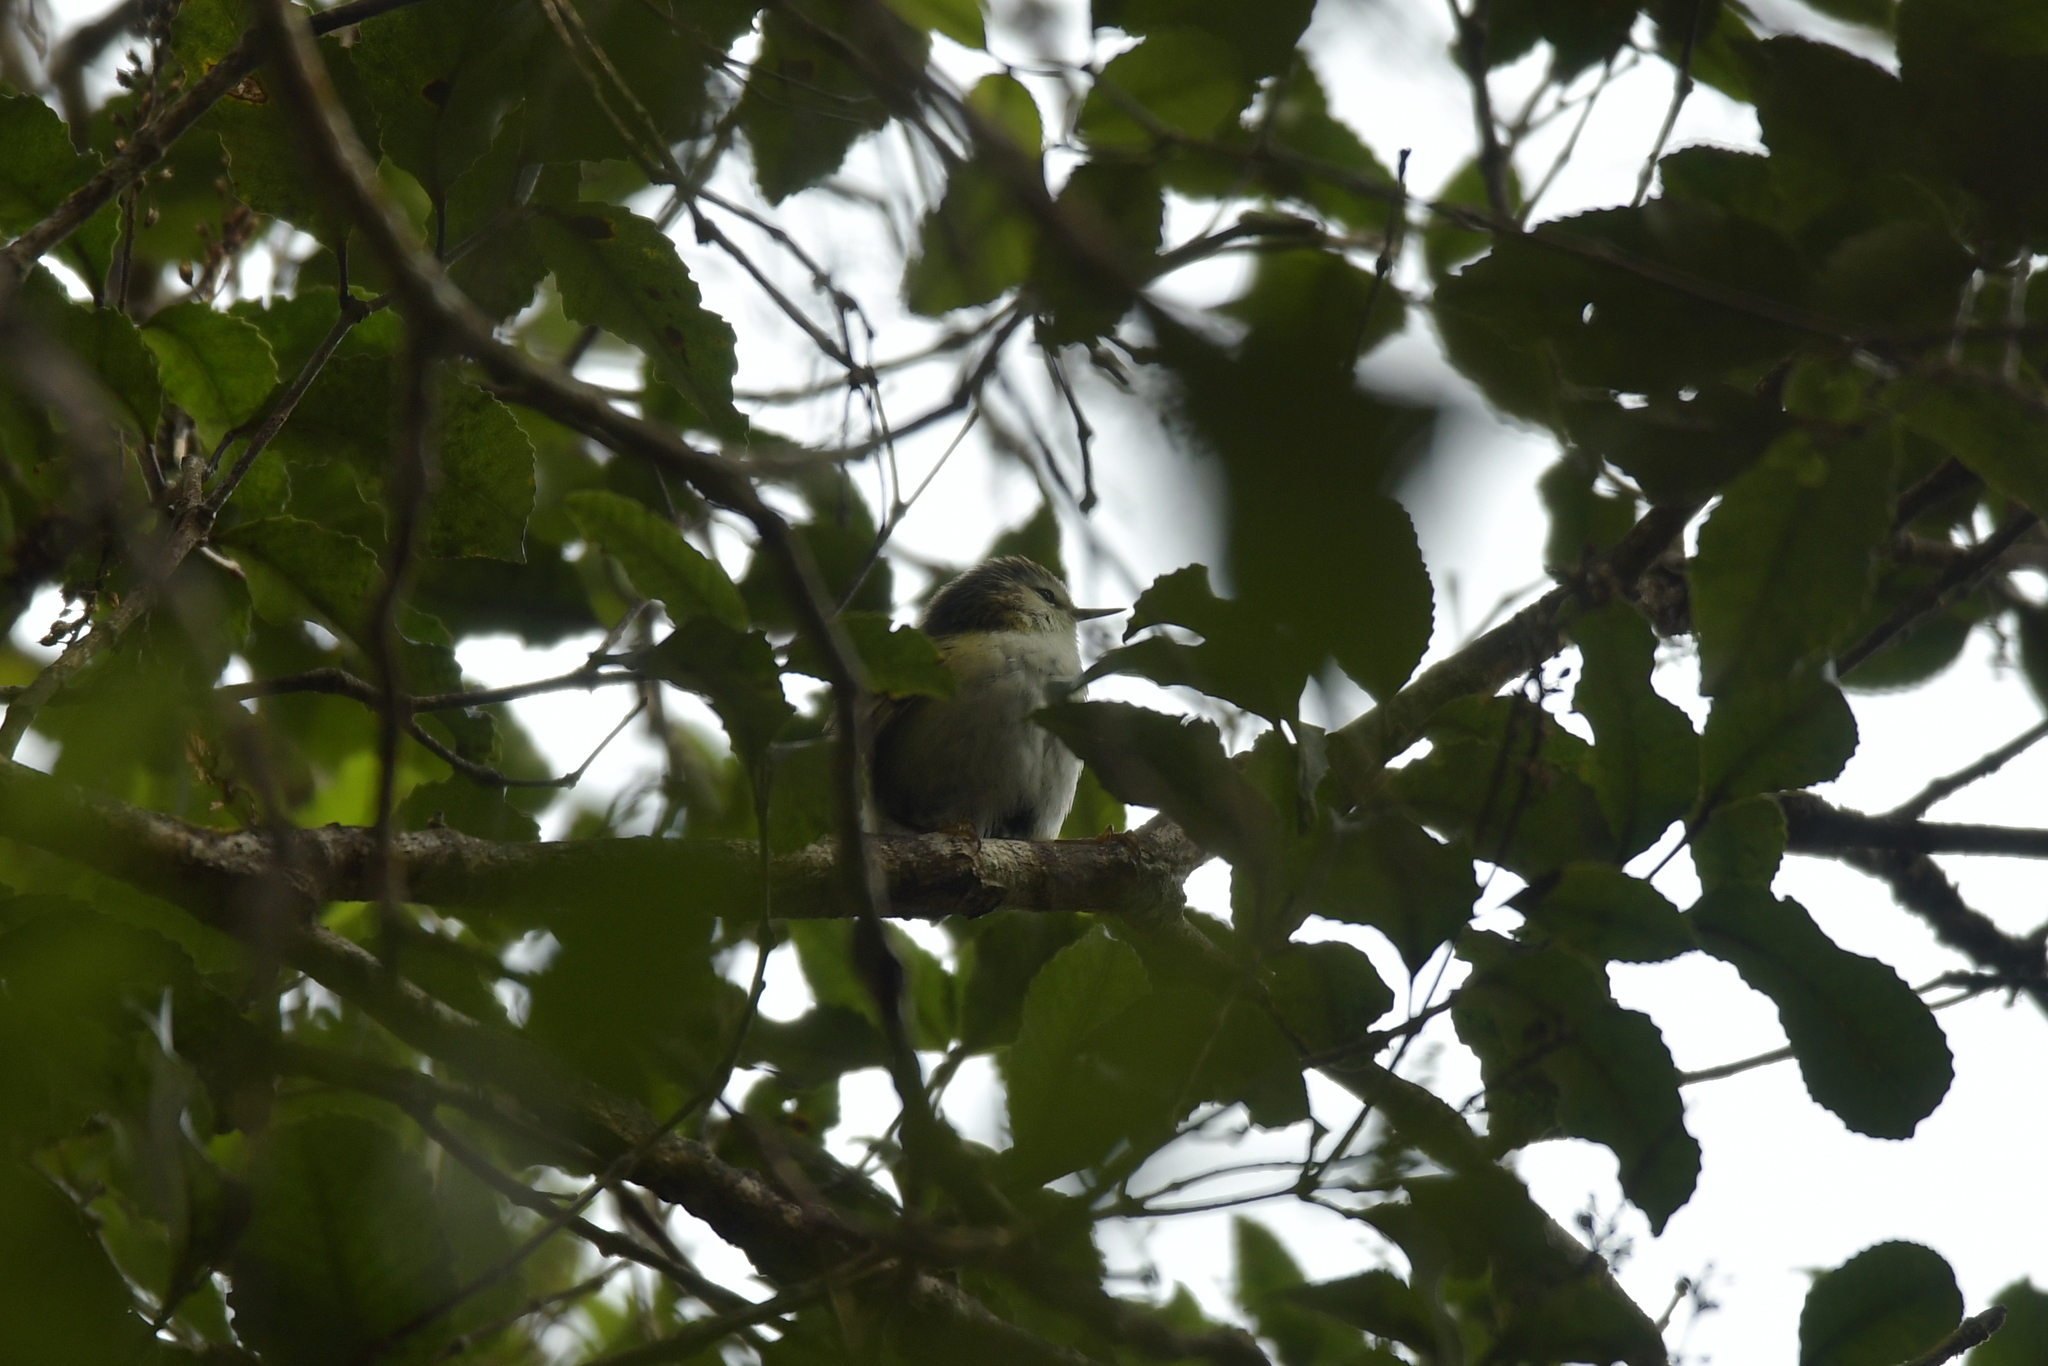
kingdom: Animalia
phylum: Chordata
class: Aves
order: Passeriformes
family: Acanthisittidae
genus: Acanthisitta
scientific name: Acanthisitta chloris
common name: Rifleman
